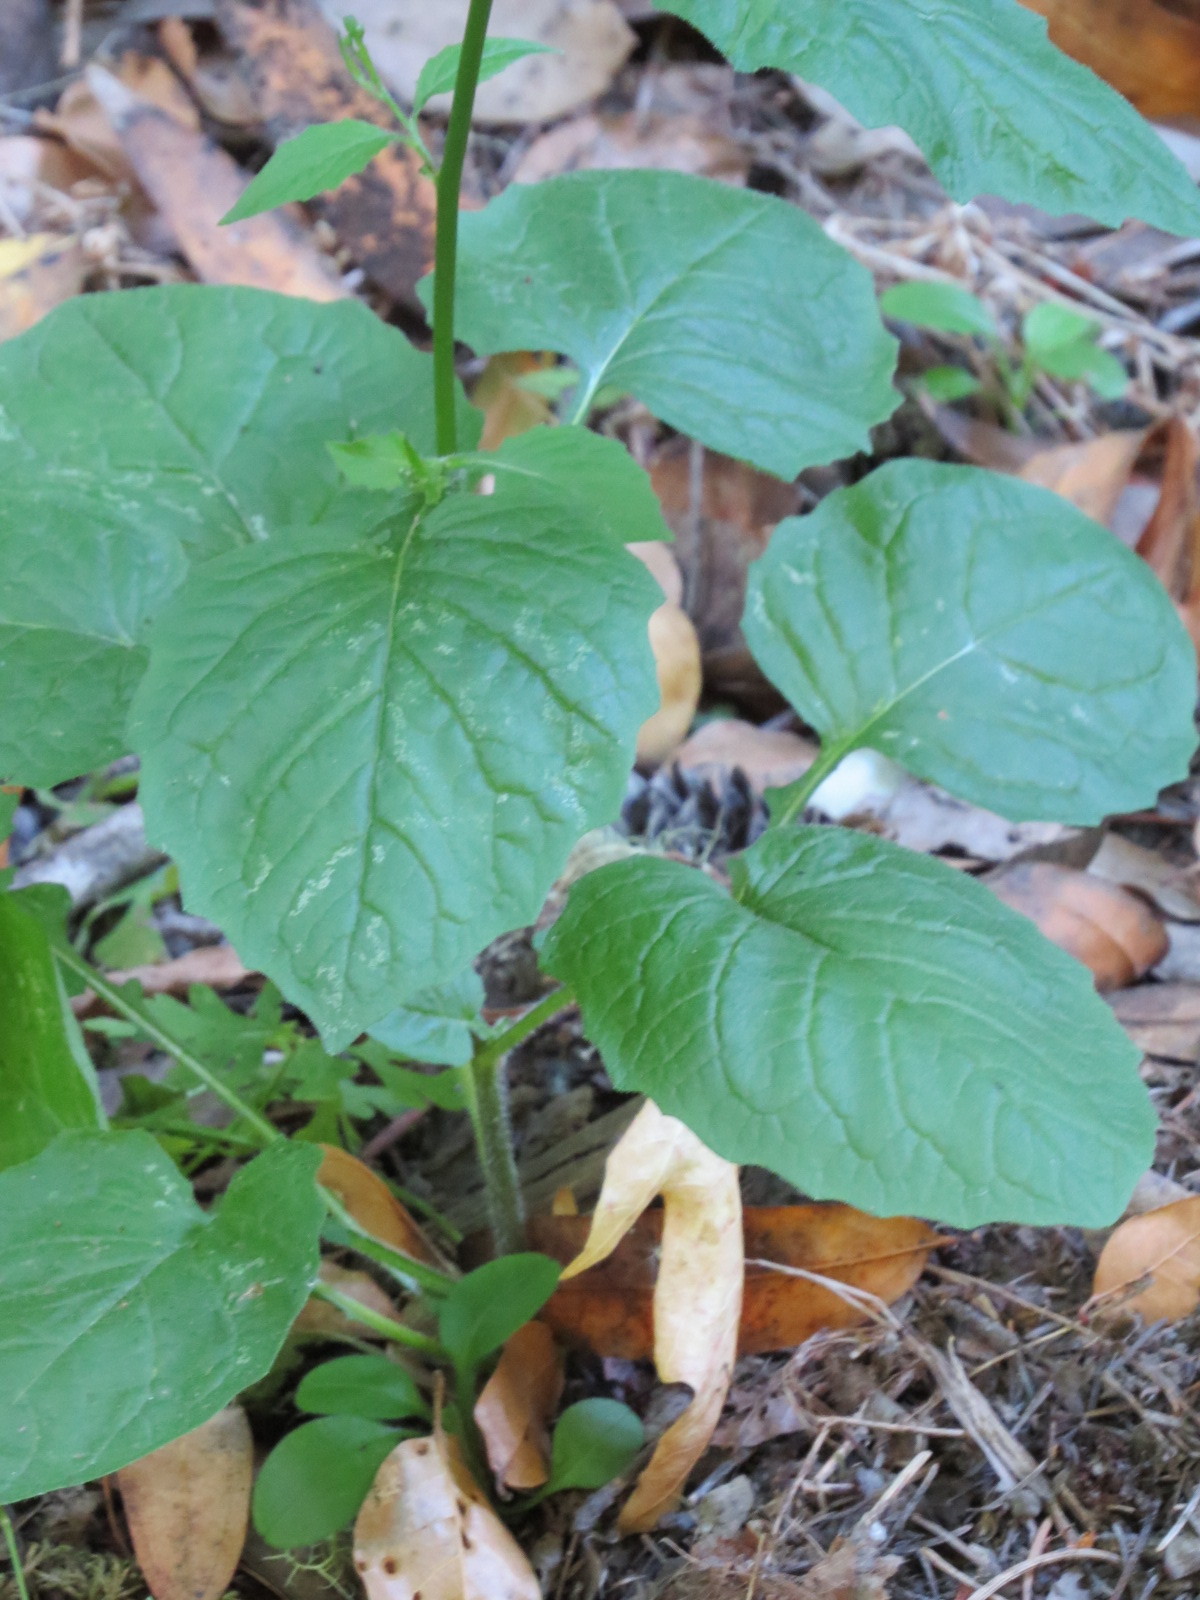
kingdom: Plantae
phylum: Tracheophyta
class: Magnoliopsida
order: Asterales
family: Asteraceae
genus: Lapsana
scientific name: Lapsana communis
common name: Nipplewort
